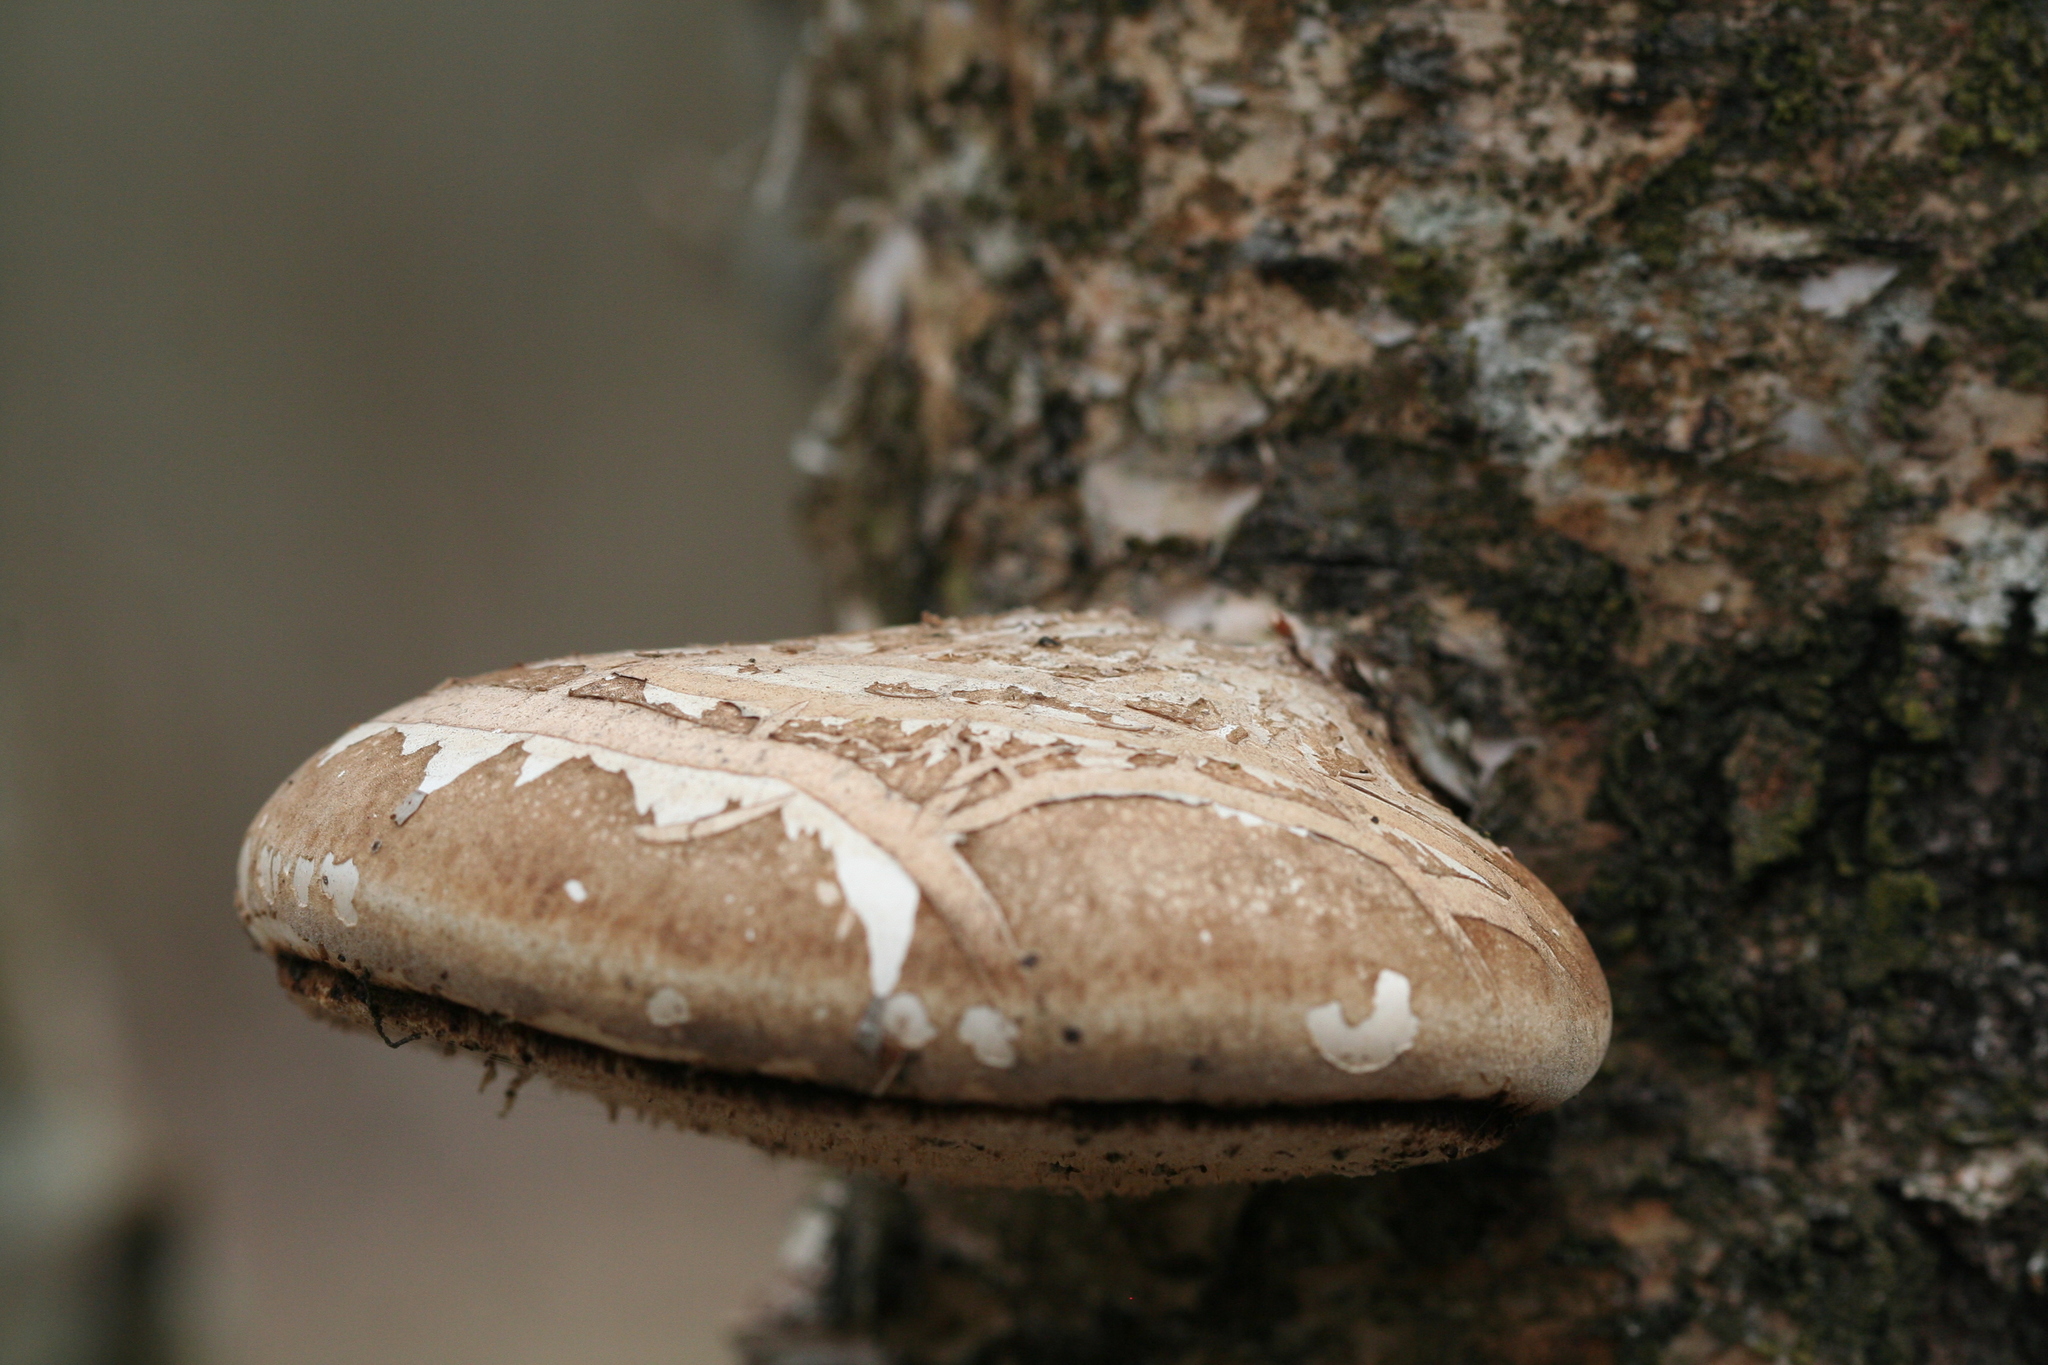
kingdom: Fungi
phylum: Basidiomycota
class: Agaricomycetes
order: Polyporales
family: Fomitopsidaceae
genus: Fomitopsis
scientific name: Fomitopsis betulina
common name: Birch polypore
